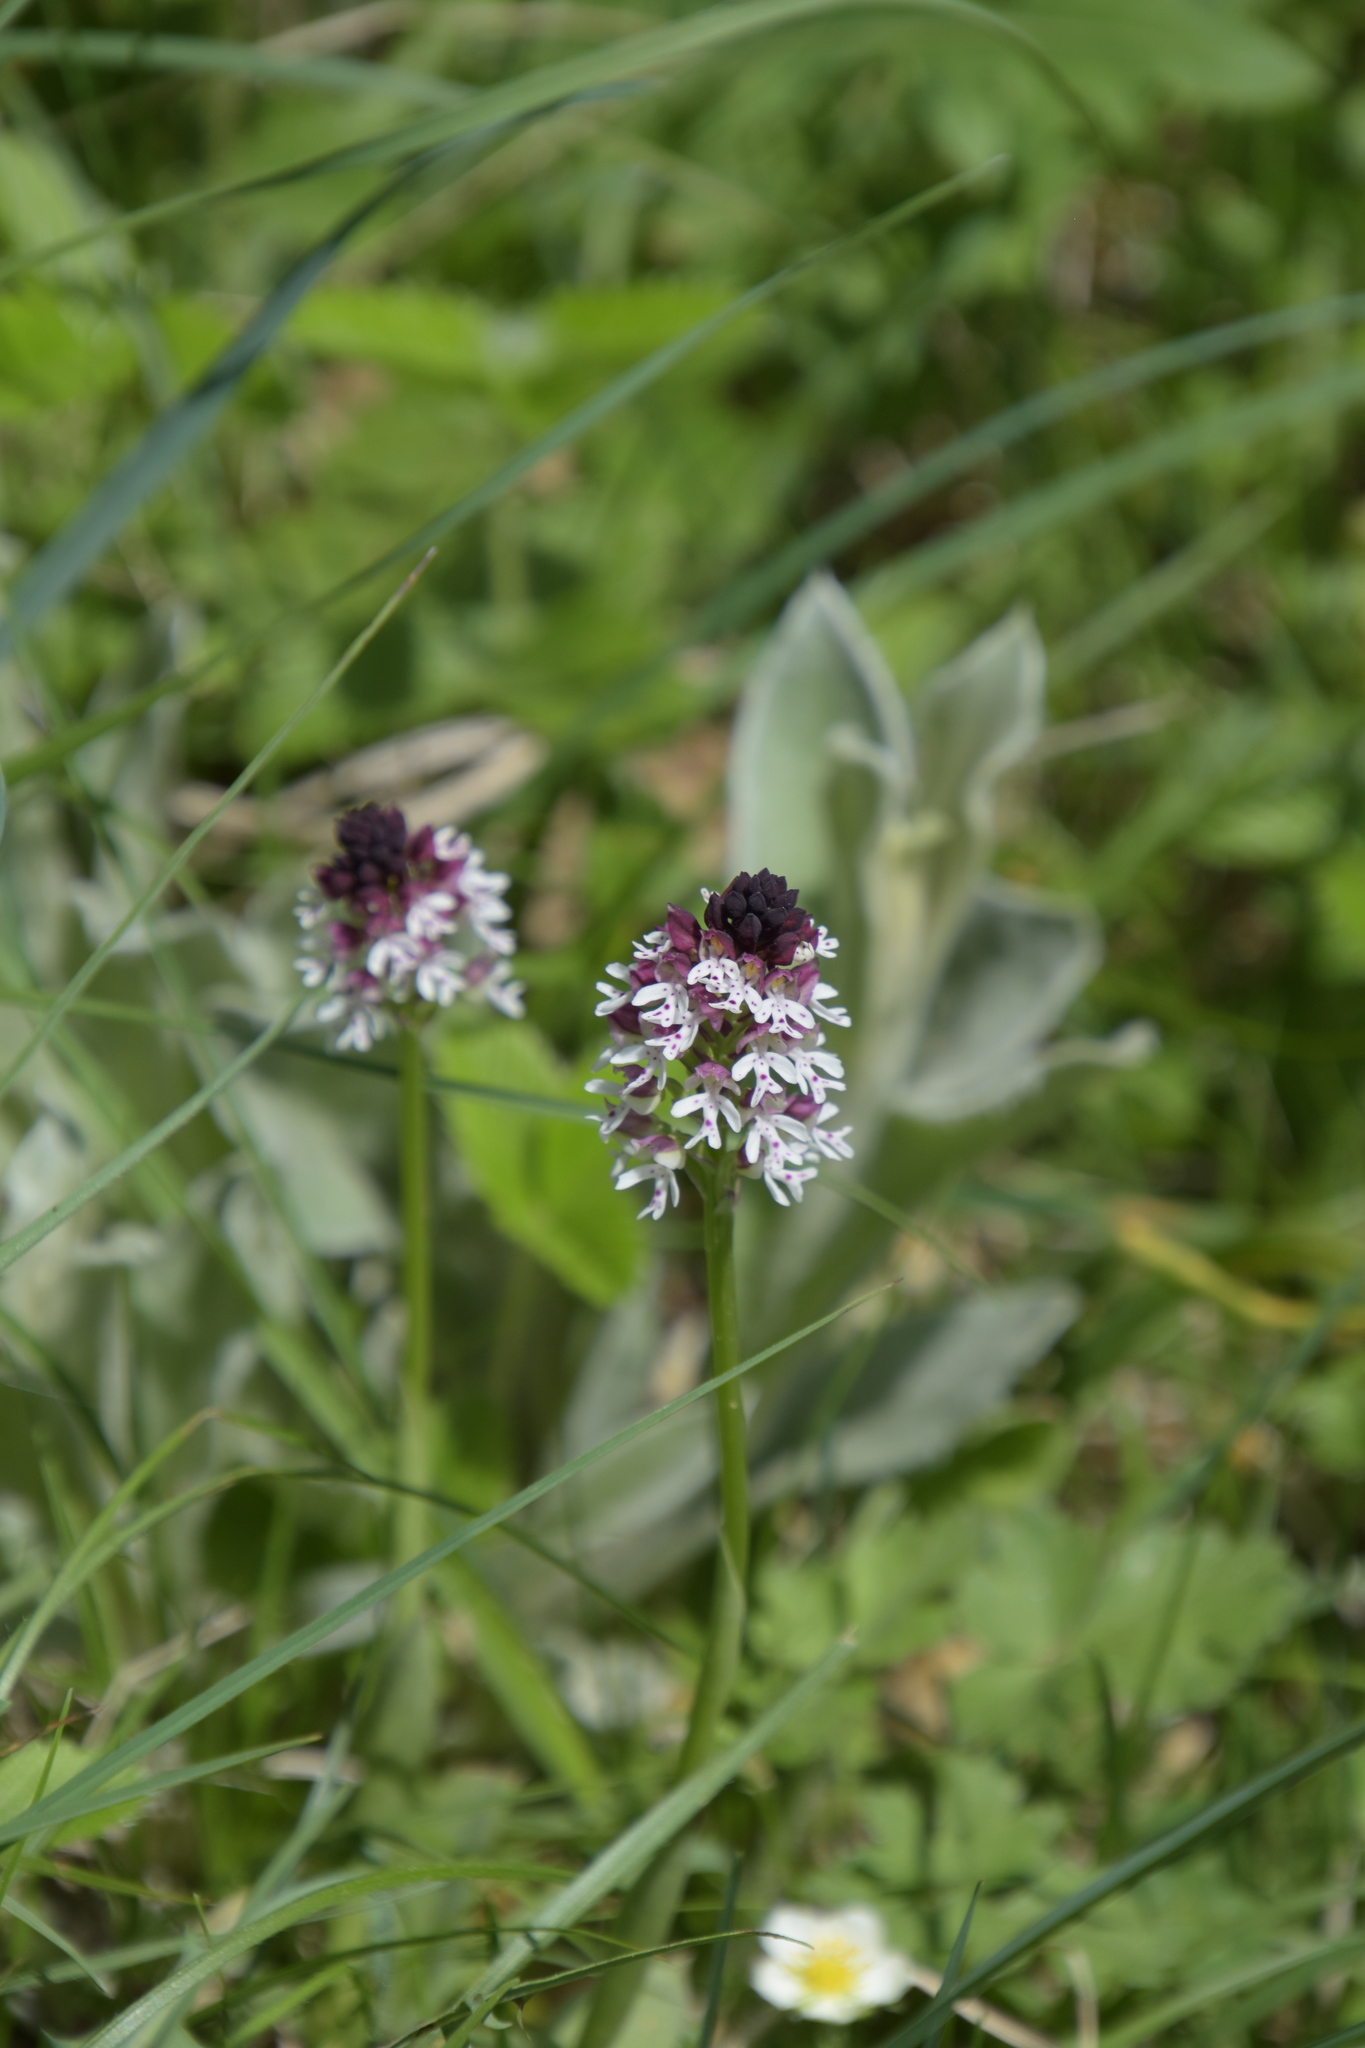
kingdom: Plantae
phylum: Tracheophyta
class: Liliopsida
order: Asparagales
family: Orchidaceae
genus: Neotinea
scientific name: Neotinea ustulata
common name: Burnt orchid
